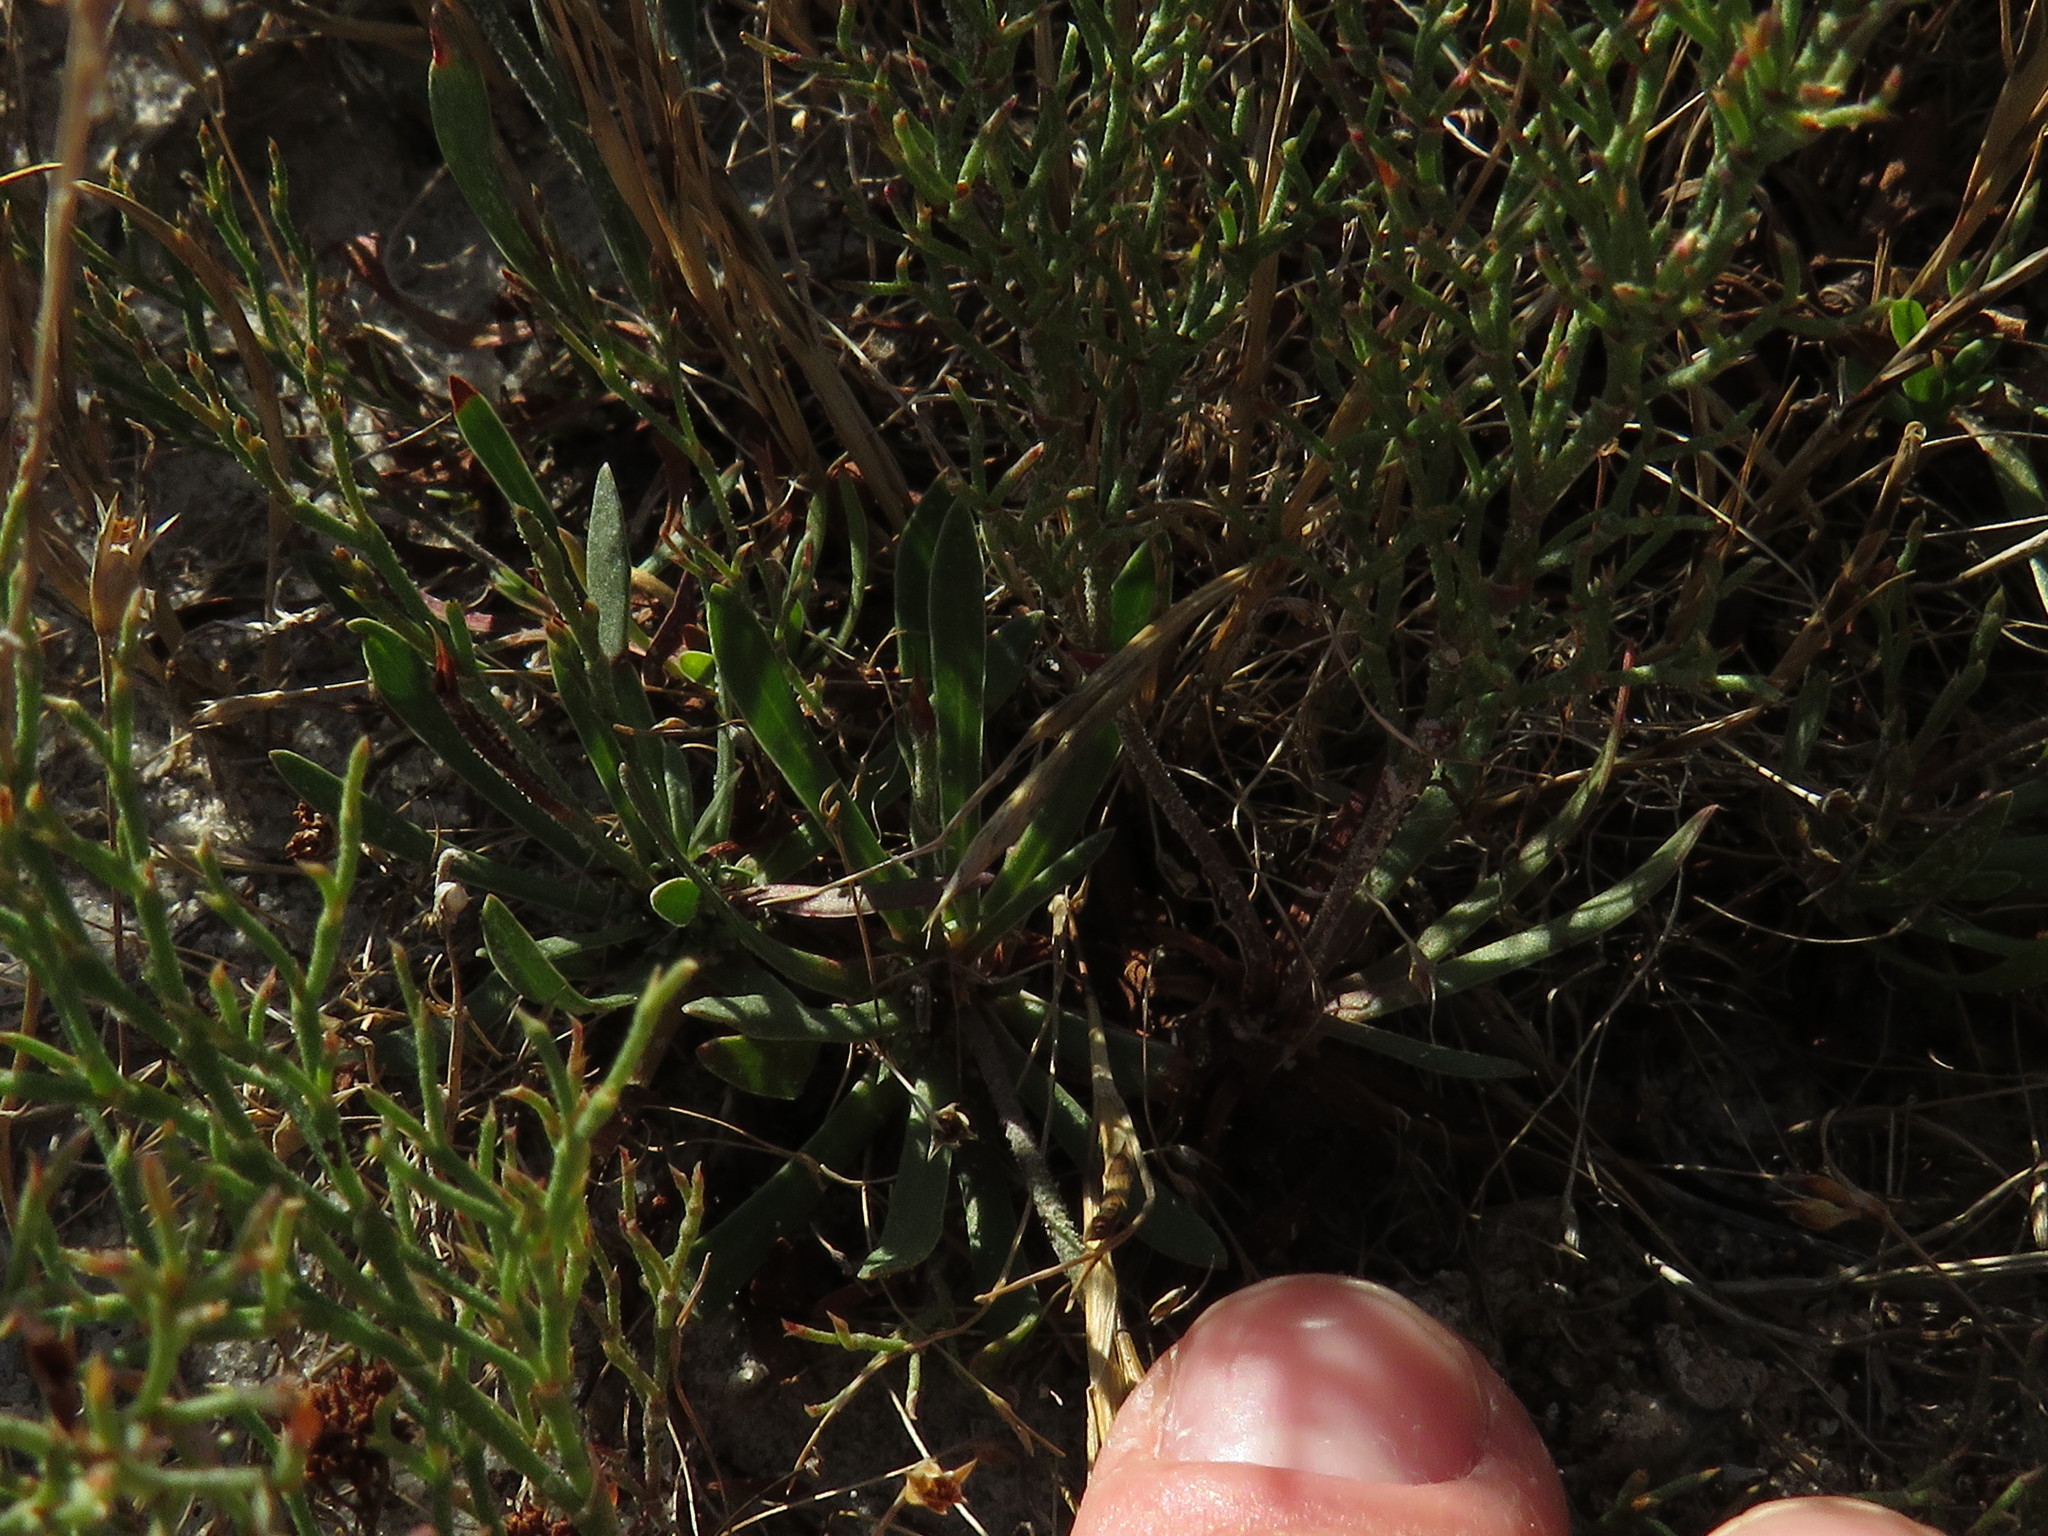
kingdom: Plantae
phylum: Tracheophyta
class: Magnoliopsida
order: Caryophyllales
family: Plumbaginaceae
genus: Limonium
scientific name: Limonium scabrum
